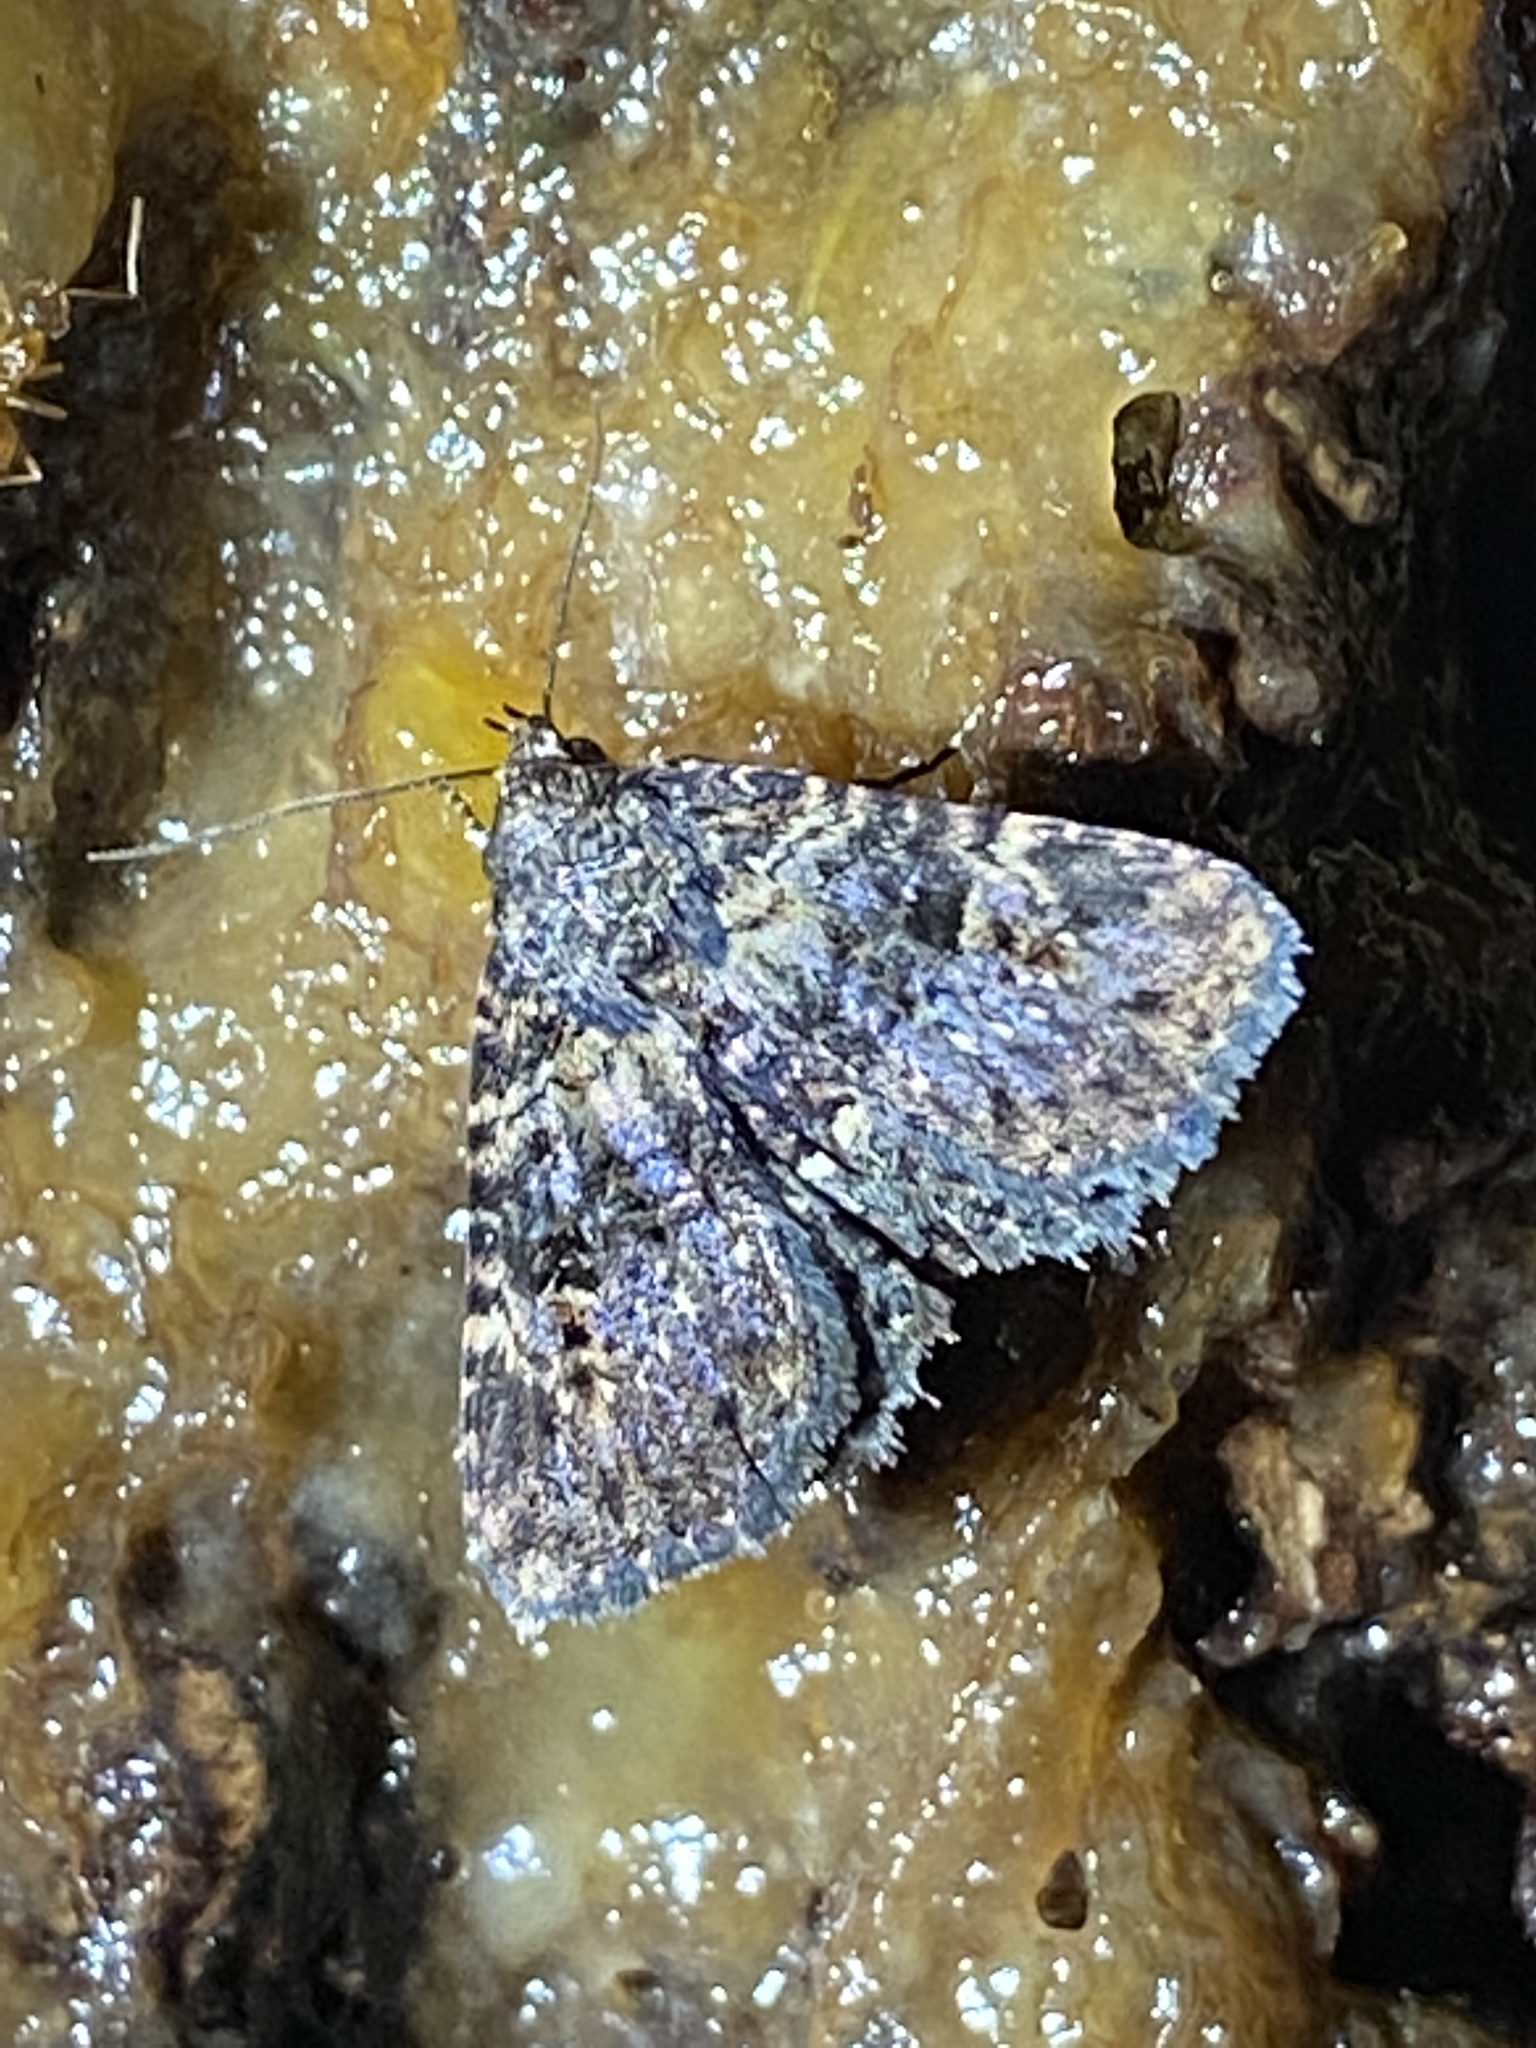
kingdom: Animalia
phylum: Arthropoda
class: Insecta
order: Lepidoptera
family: Erebidae
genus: Metalectra
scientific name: Metalectra discalis
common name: Common fungus moth
